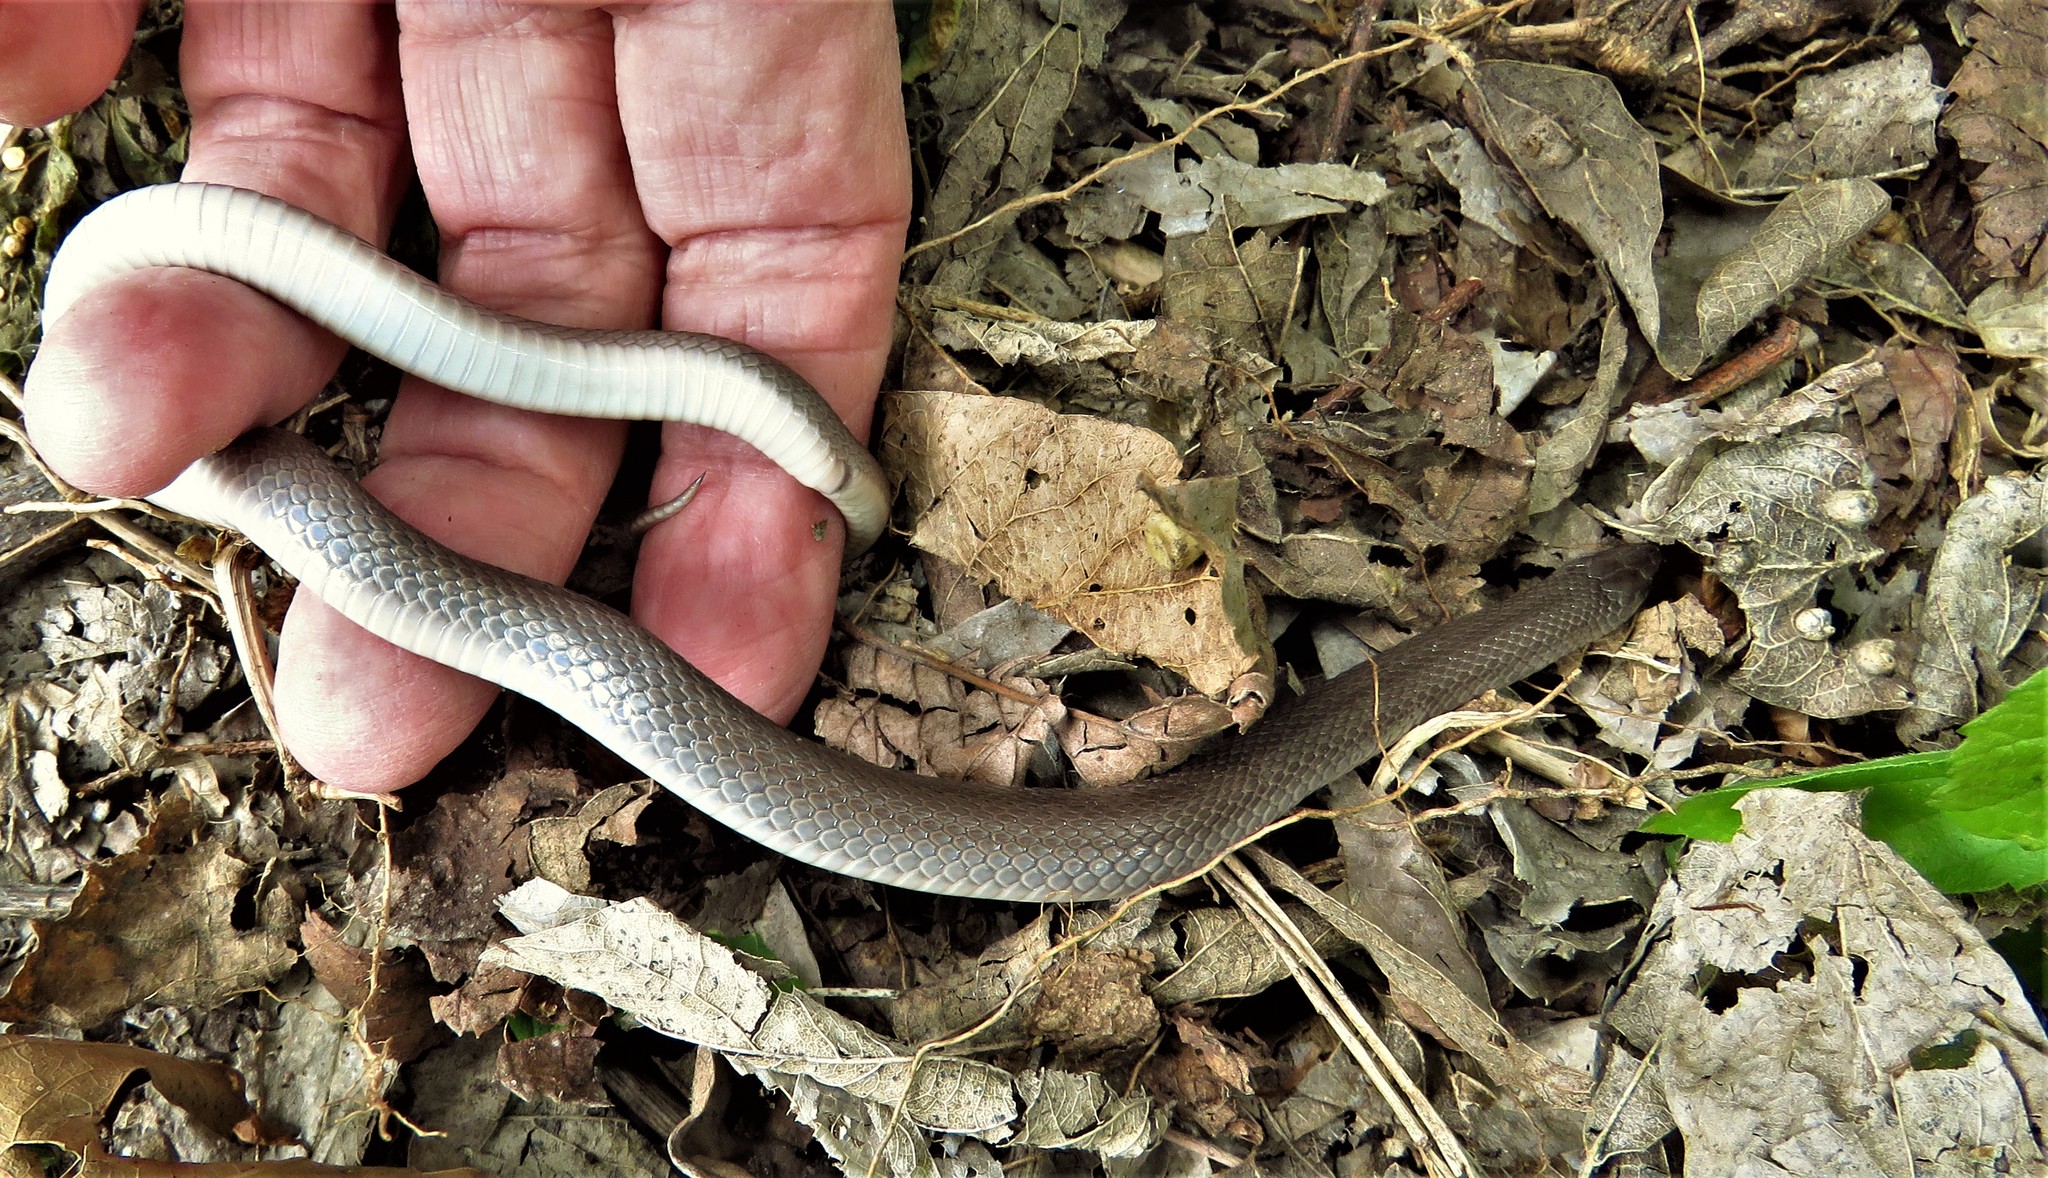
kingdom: Animalia
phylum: Chordata
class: Squamata
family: Colubridae
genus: Haldea
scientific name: Haldea striatula
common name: Rough earth snake
